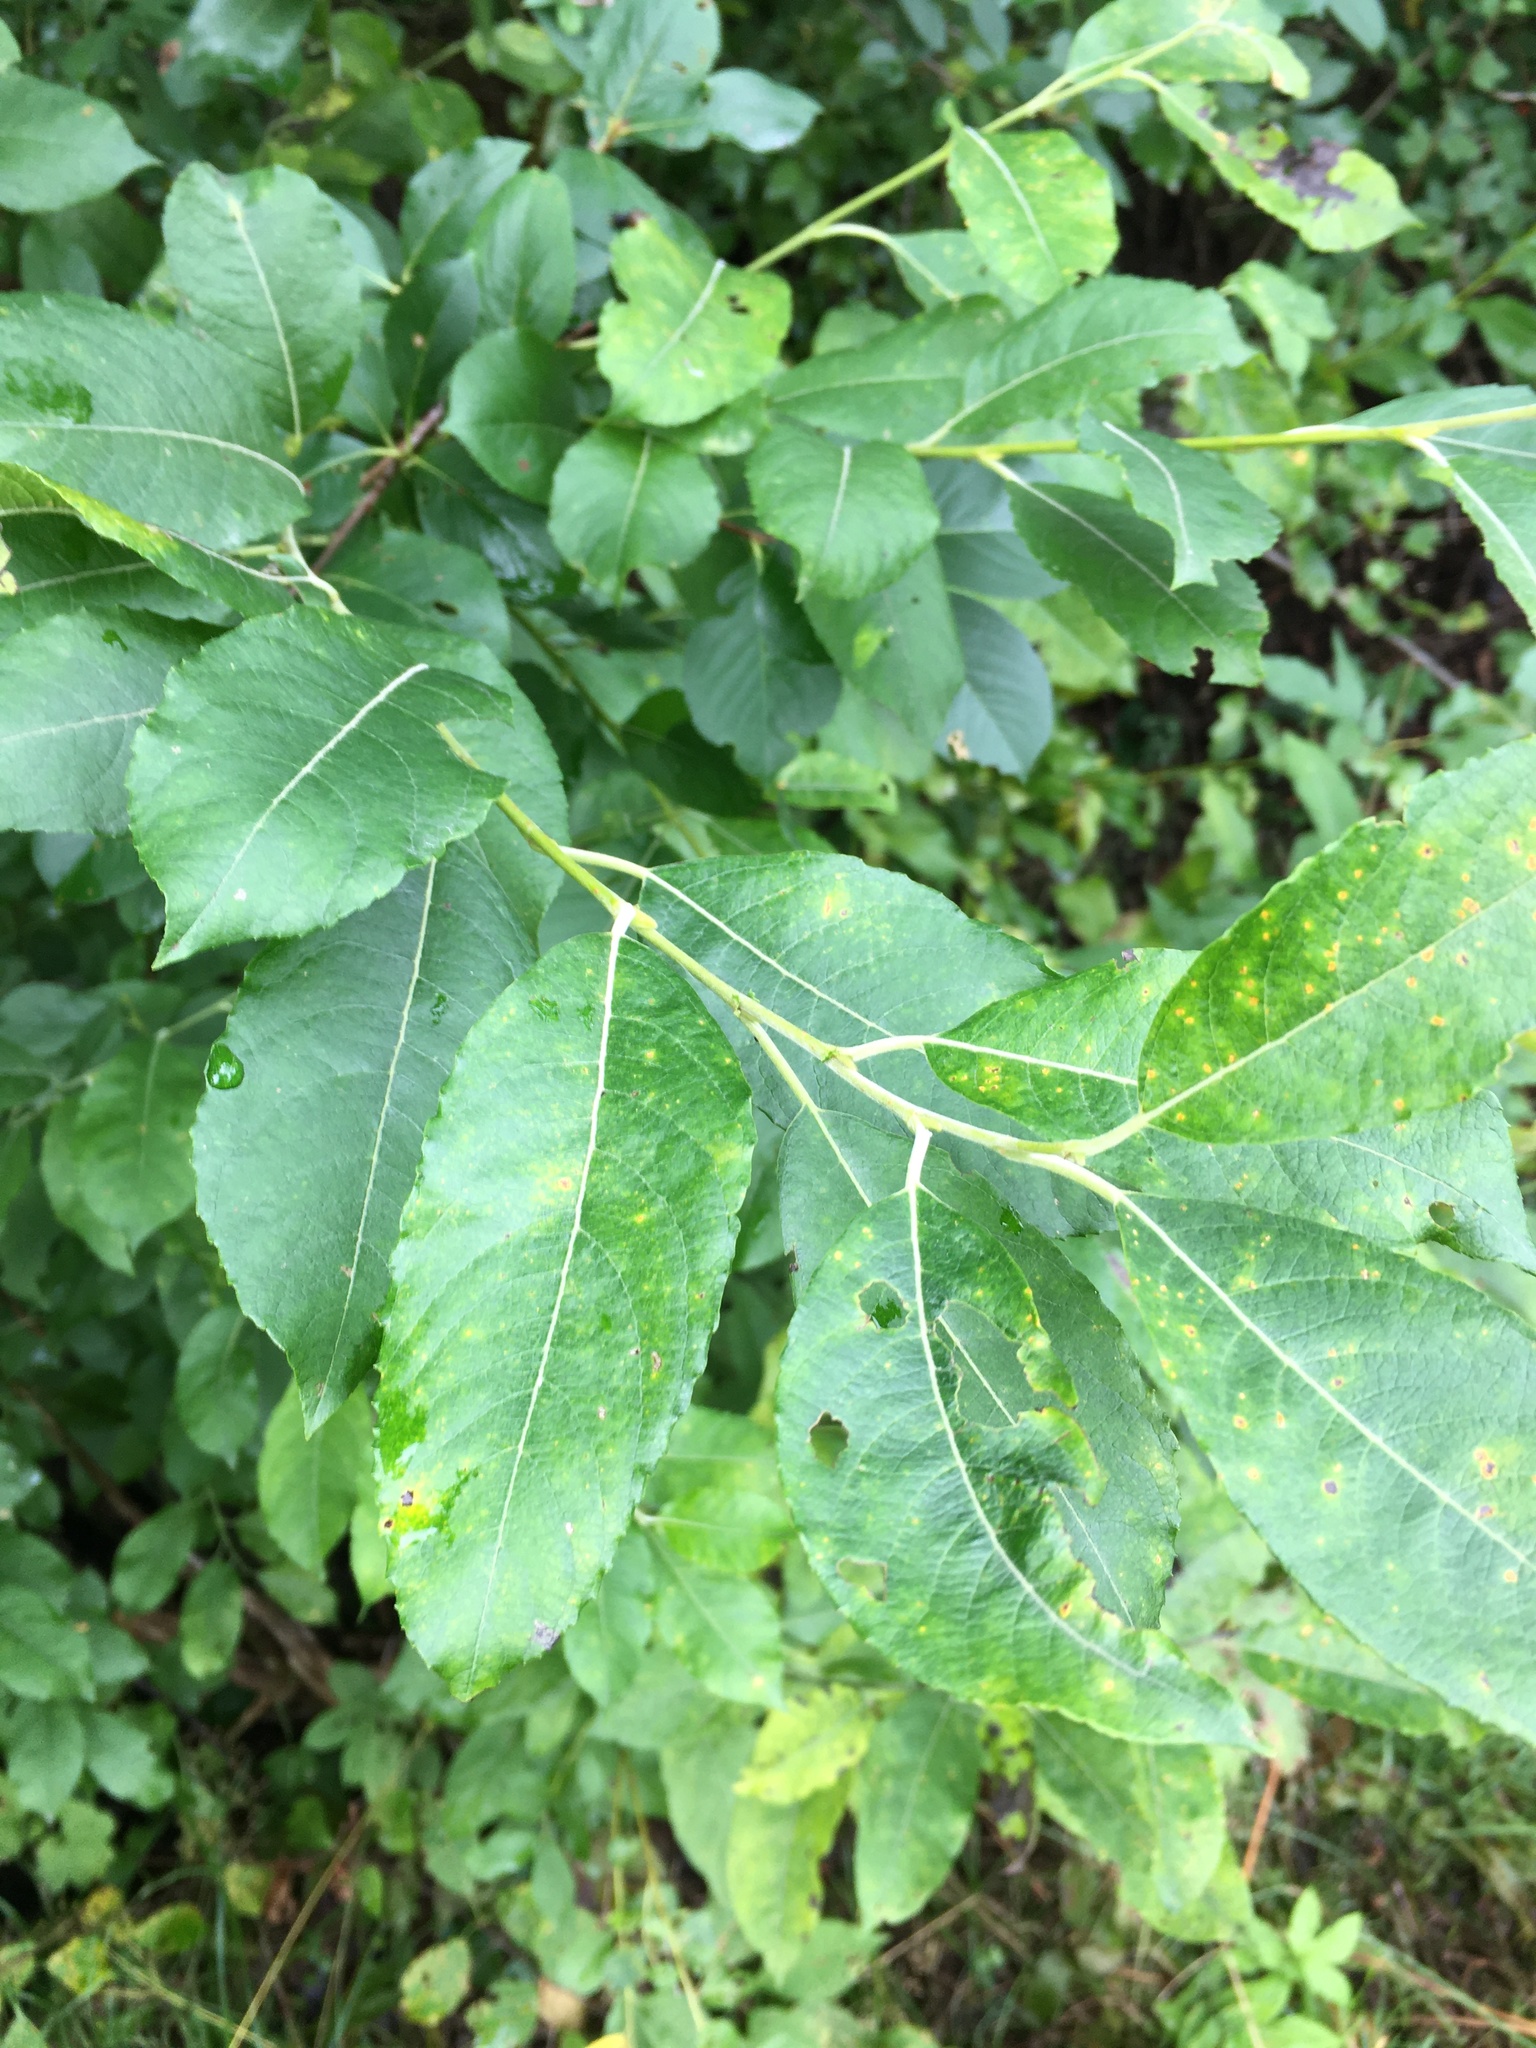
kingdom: Plantae
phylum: Tracheophyta
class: Magnoliopsida
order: Malpighiales
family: Salicaceae
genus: Salix
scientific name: Salix caprea
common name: Goat willow
